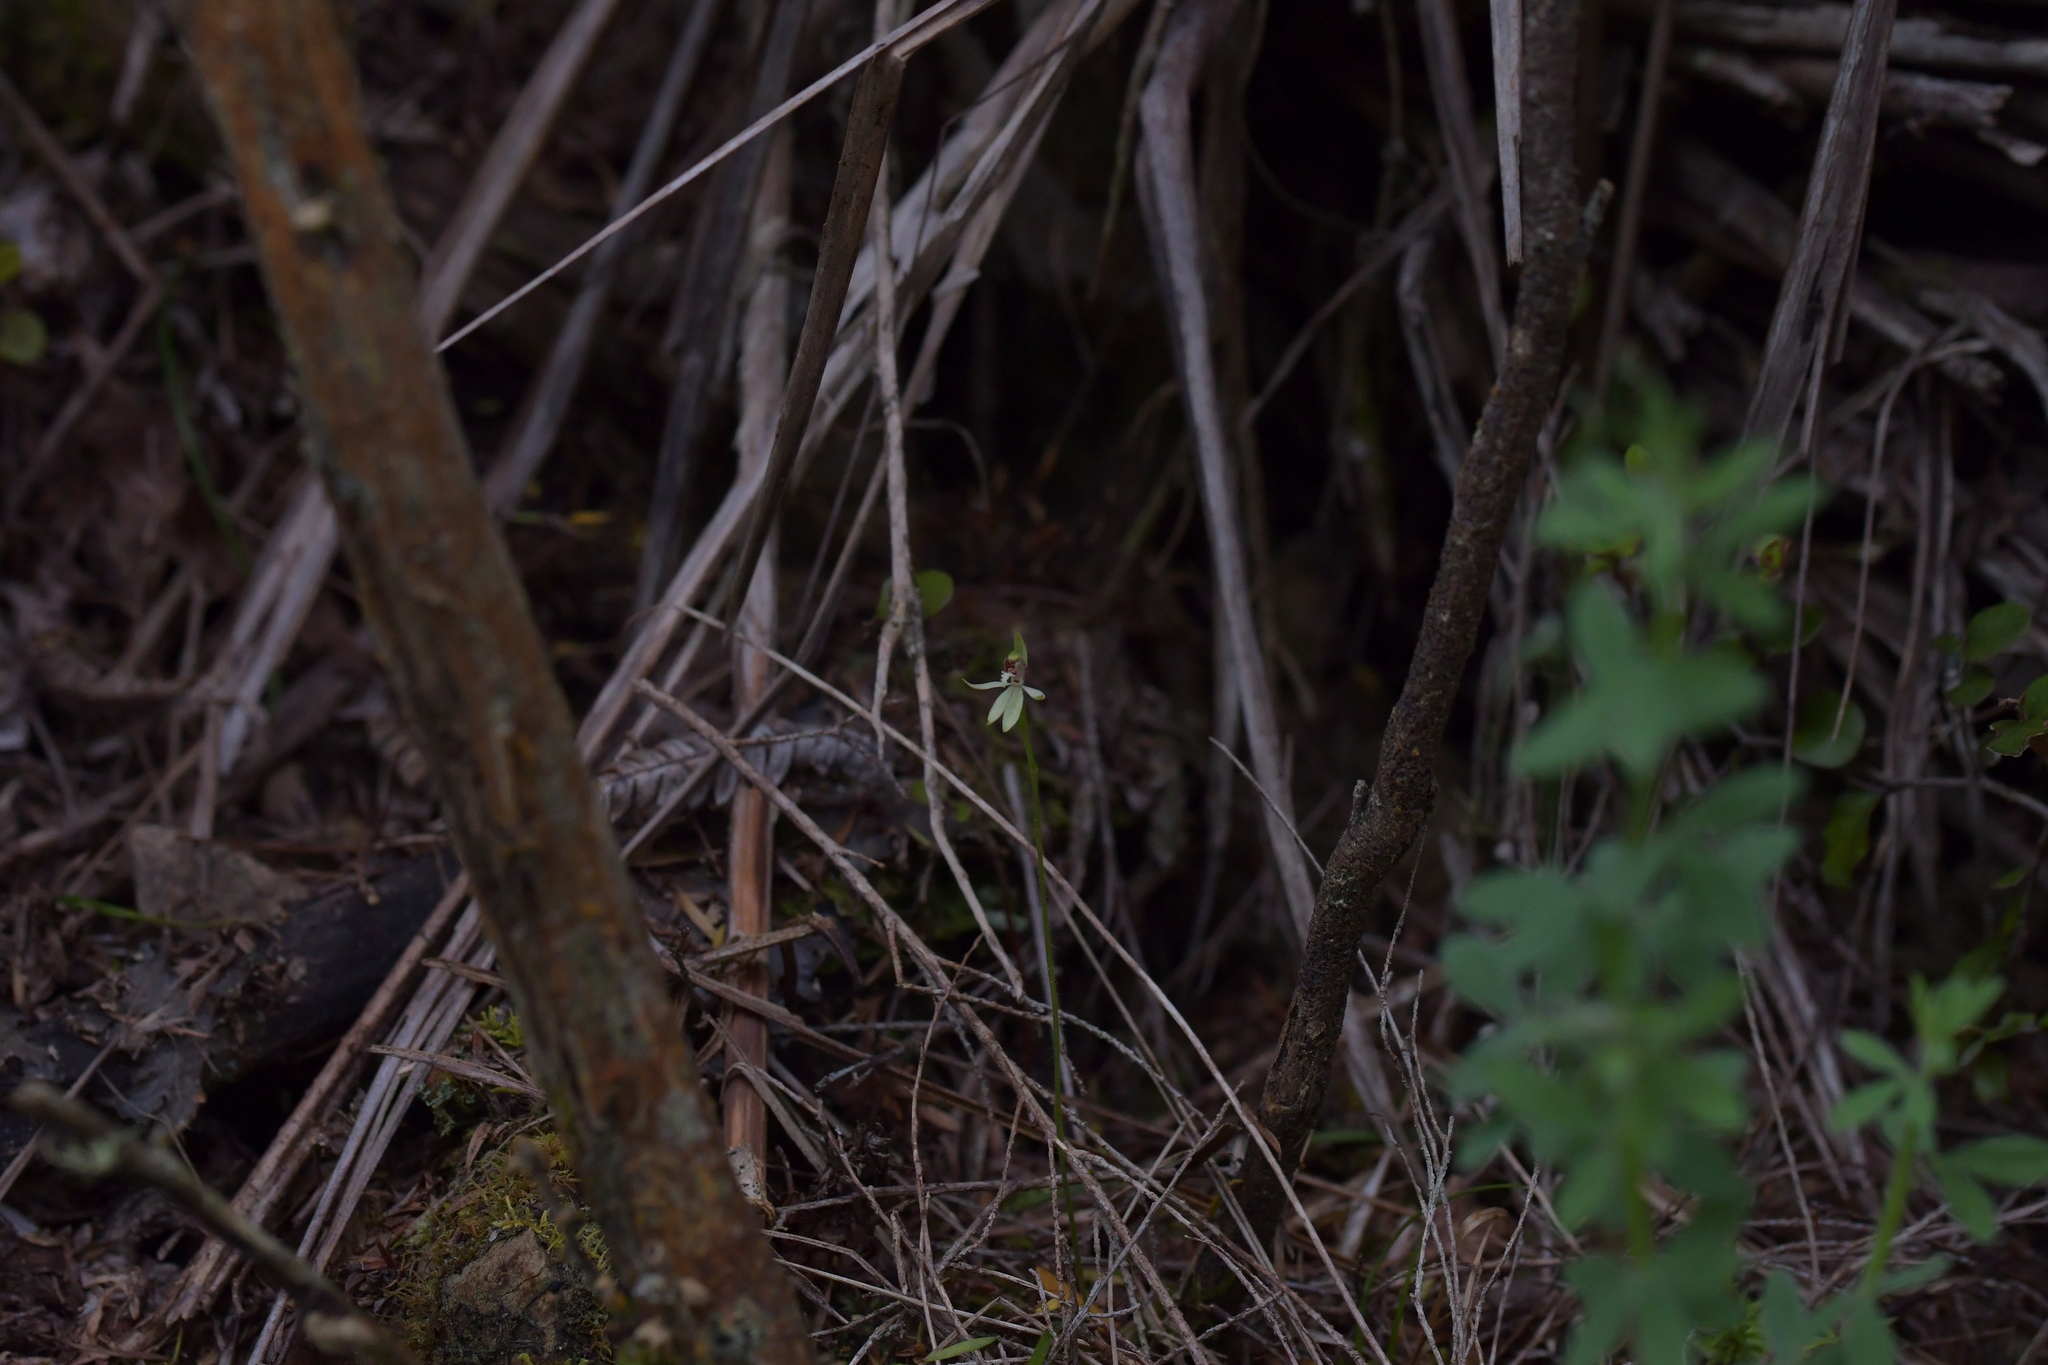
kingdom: Plantae
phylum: Tracheophyta
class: Liliopsida
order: Asparagales
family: Orchidaceae
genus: Caladenia
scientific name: Caladenia chlorostyla
